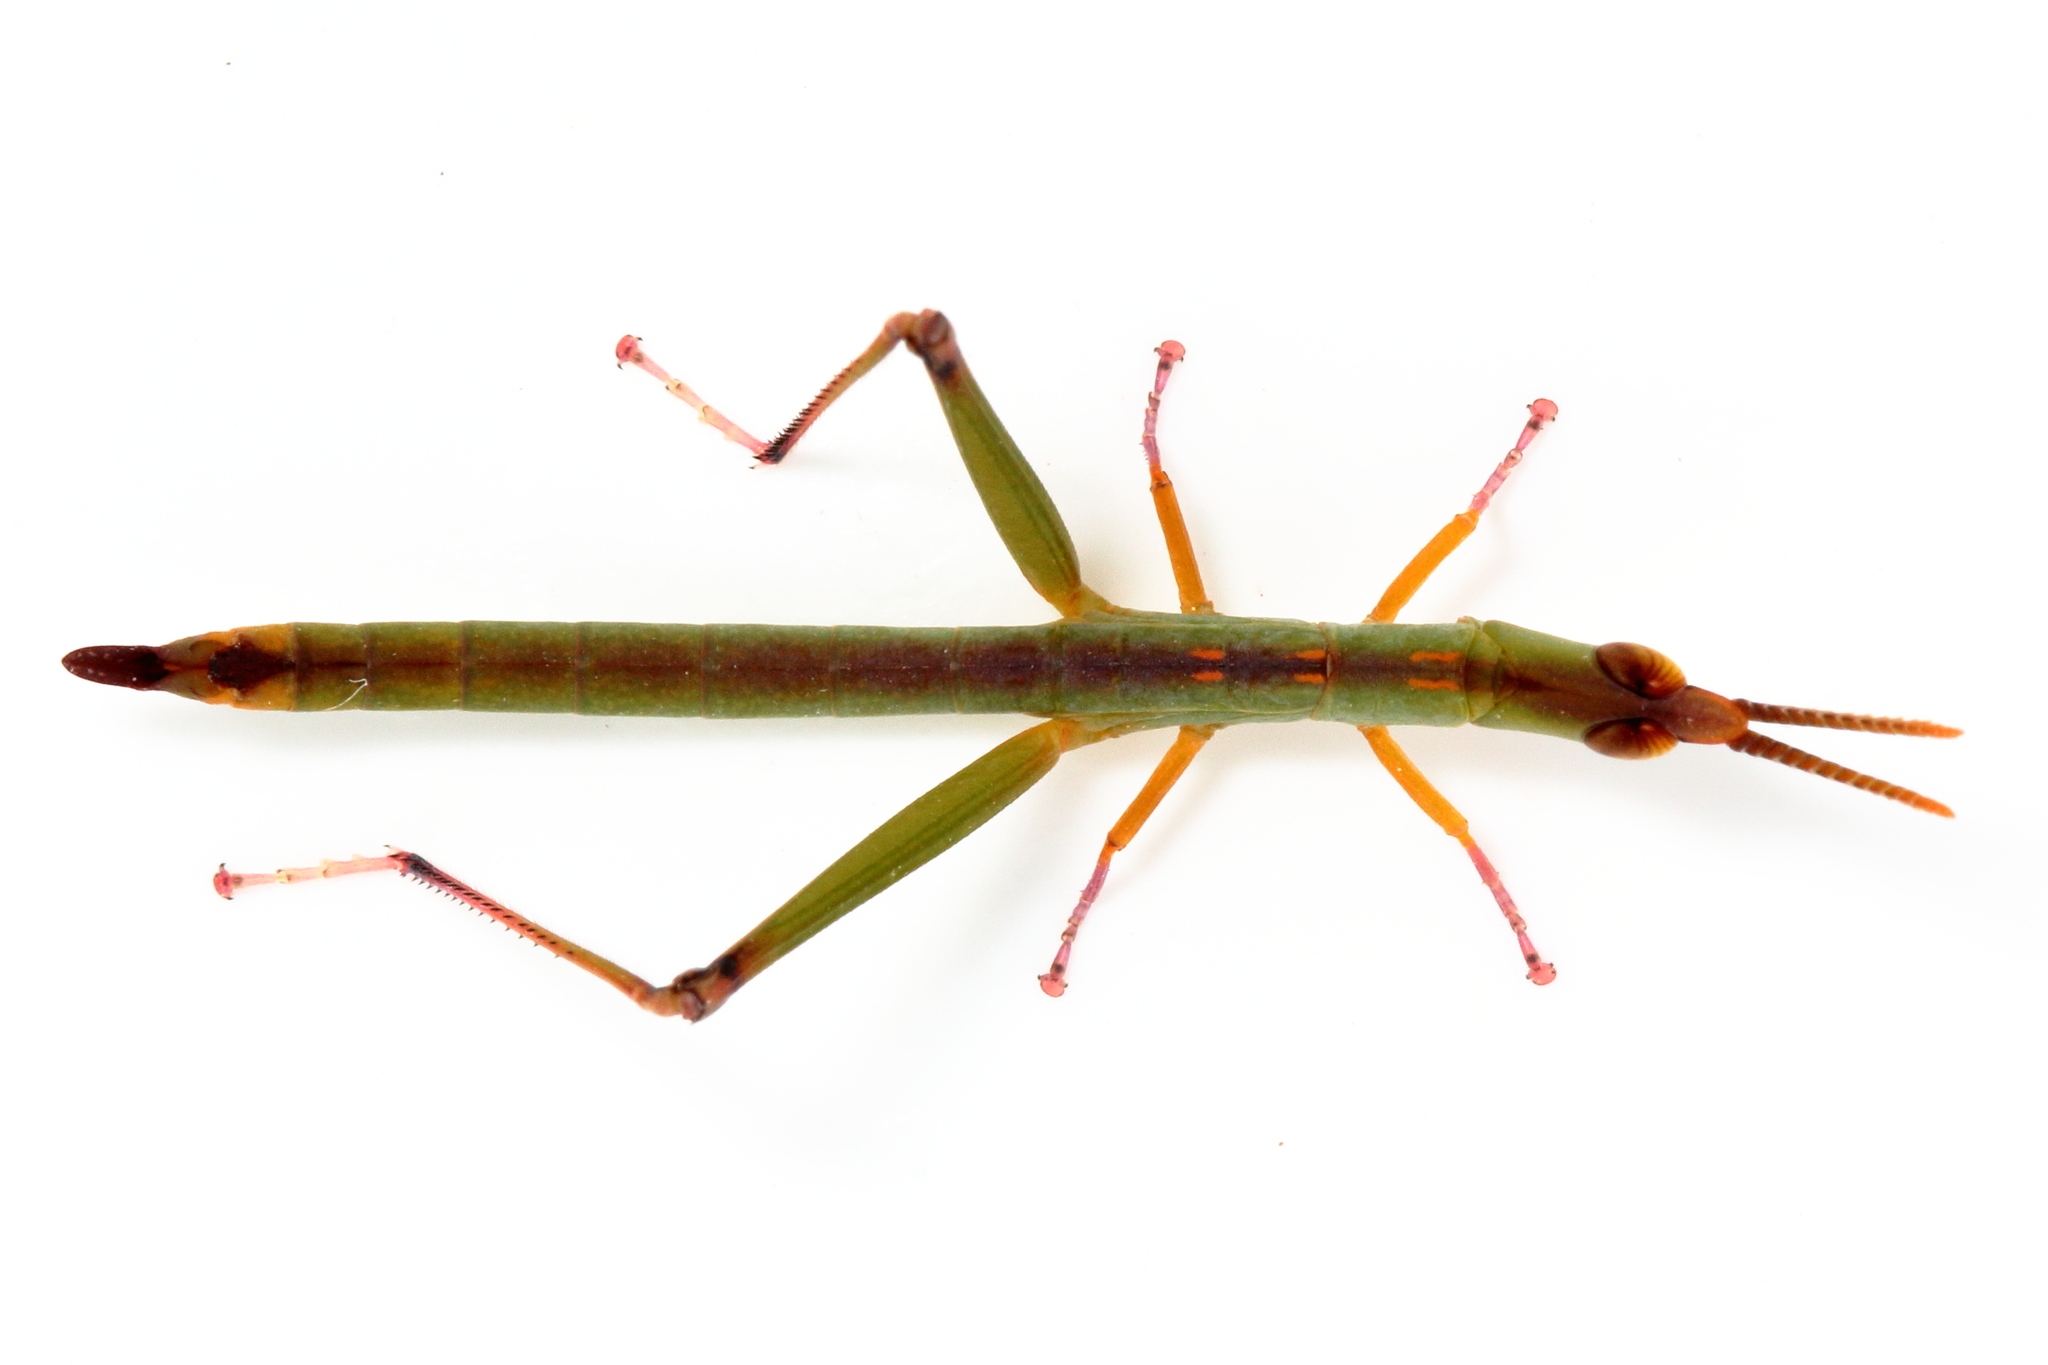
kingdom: Animalia
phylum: Arthropoda
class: Insecta
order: Orthoptera
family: Morabidae
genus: Warramaba
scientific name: Warramaba flavolineata
